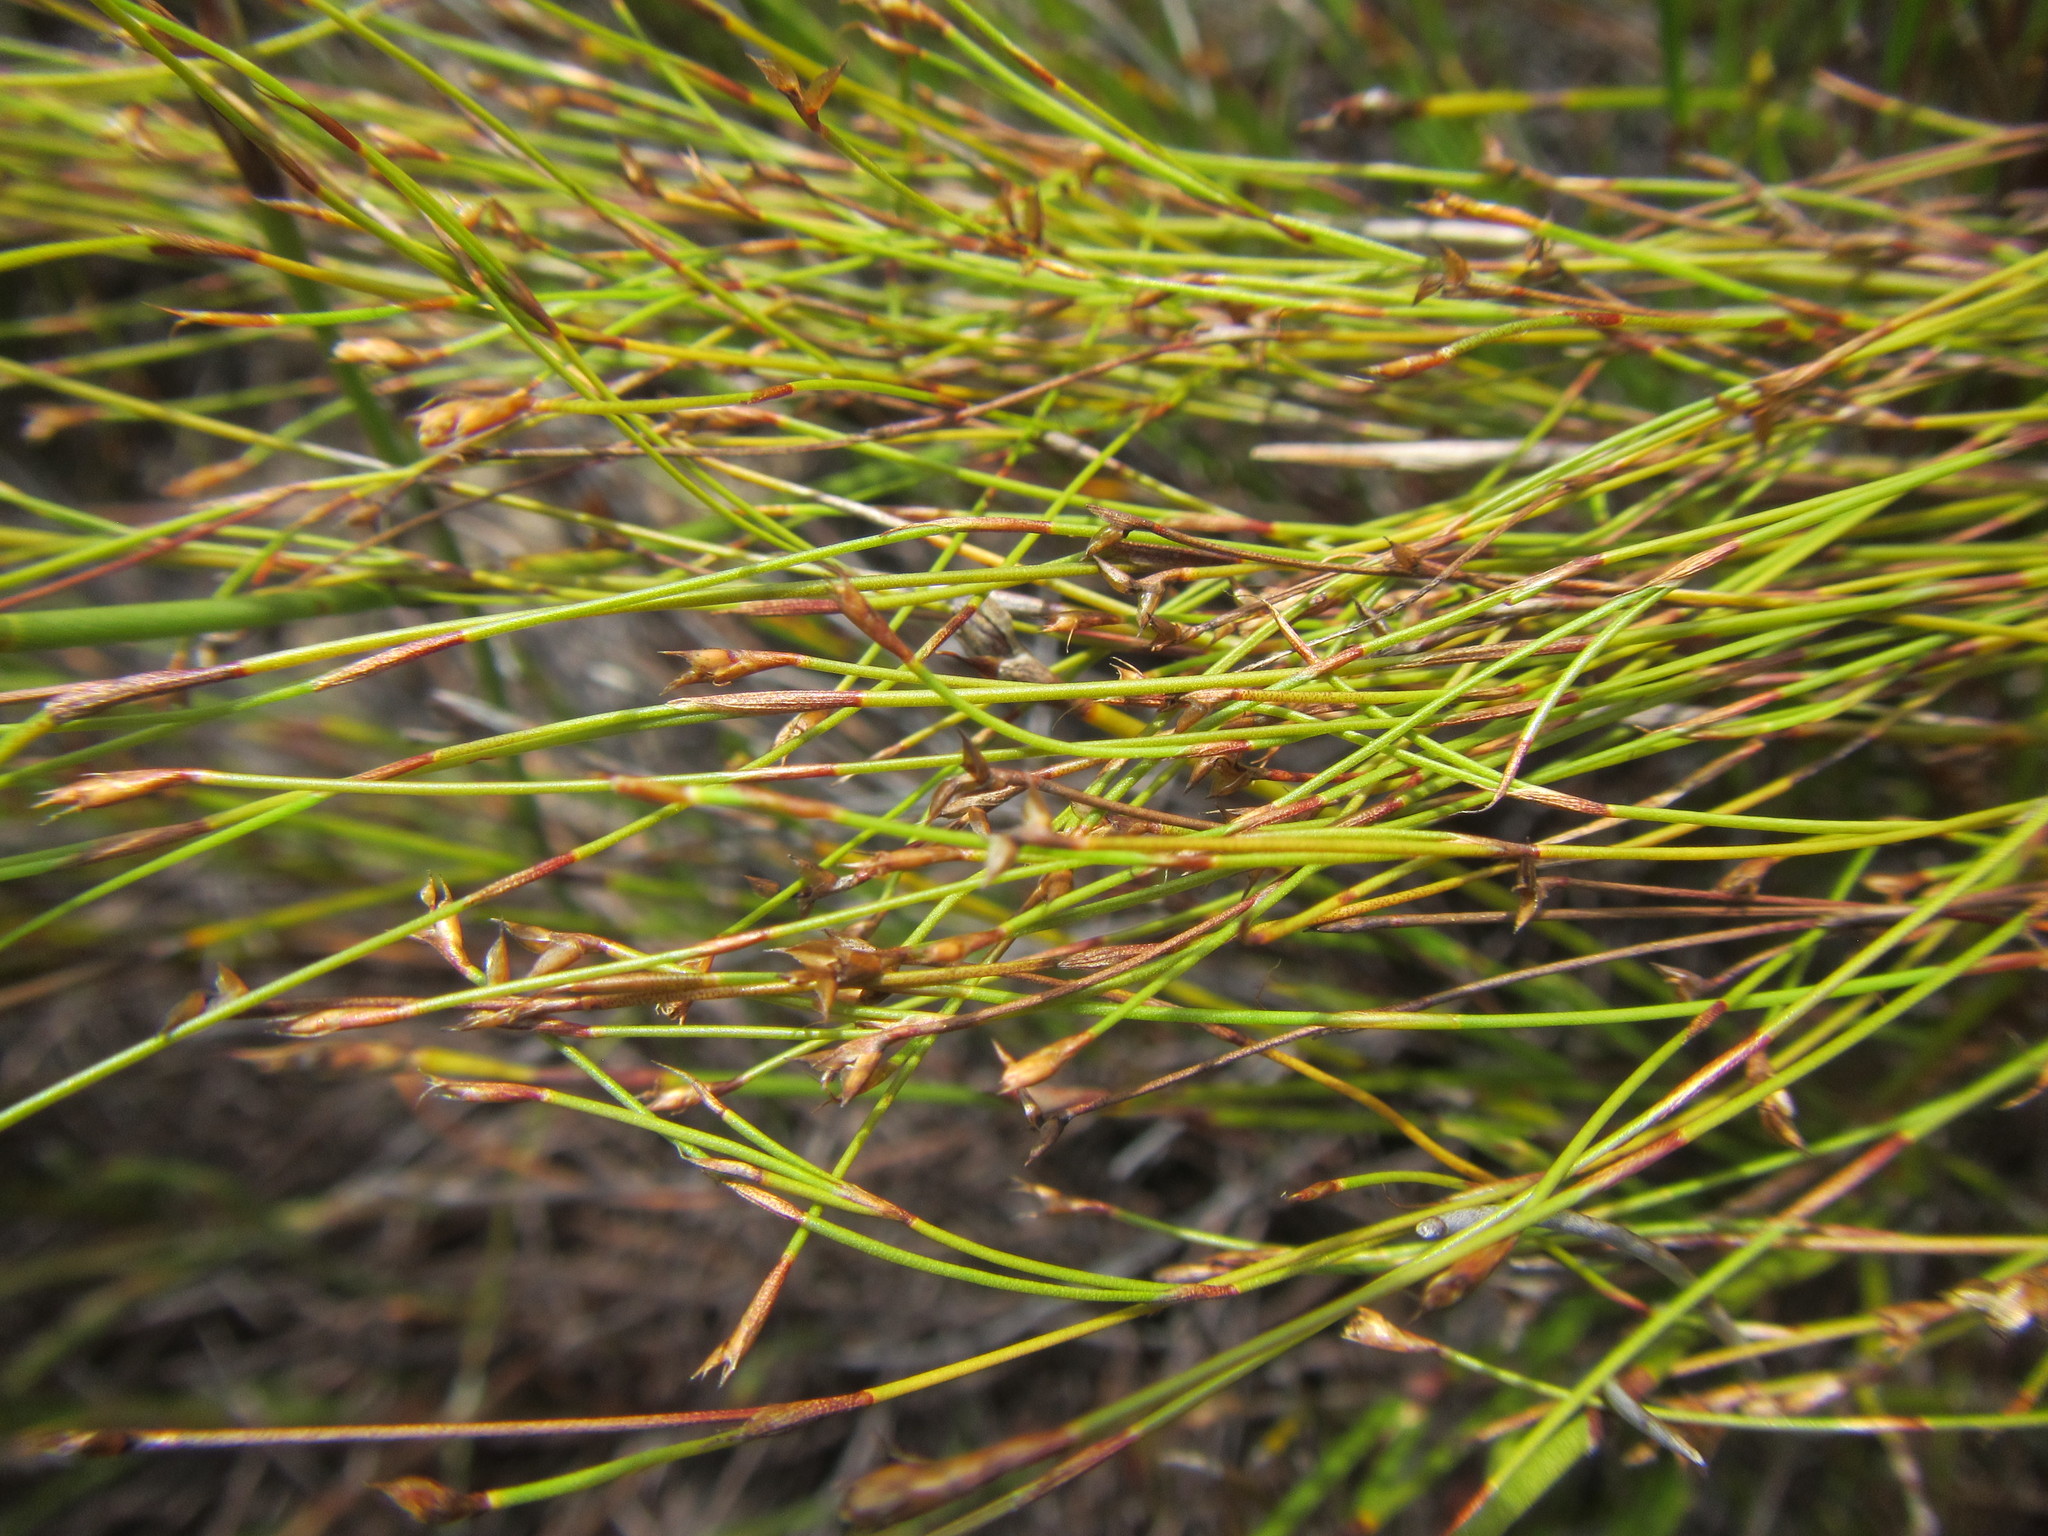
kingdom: Plantae
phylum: Tracheophyta
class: Liliopsida
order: Poales
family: Restionaceae
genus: Restio
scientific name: Restio ramosissimus
